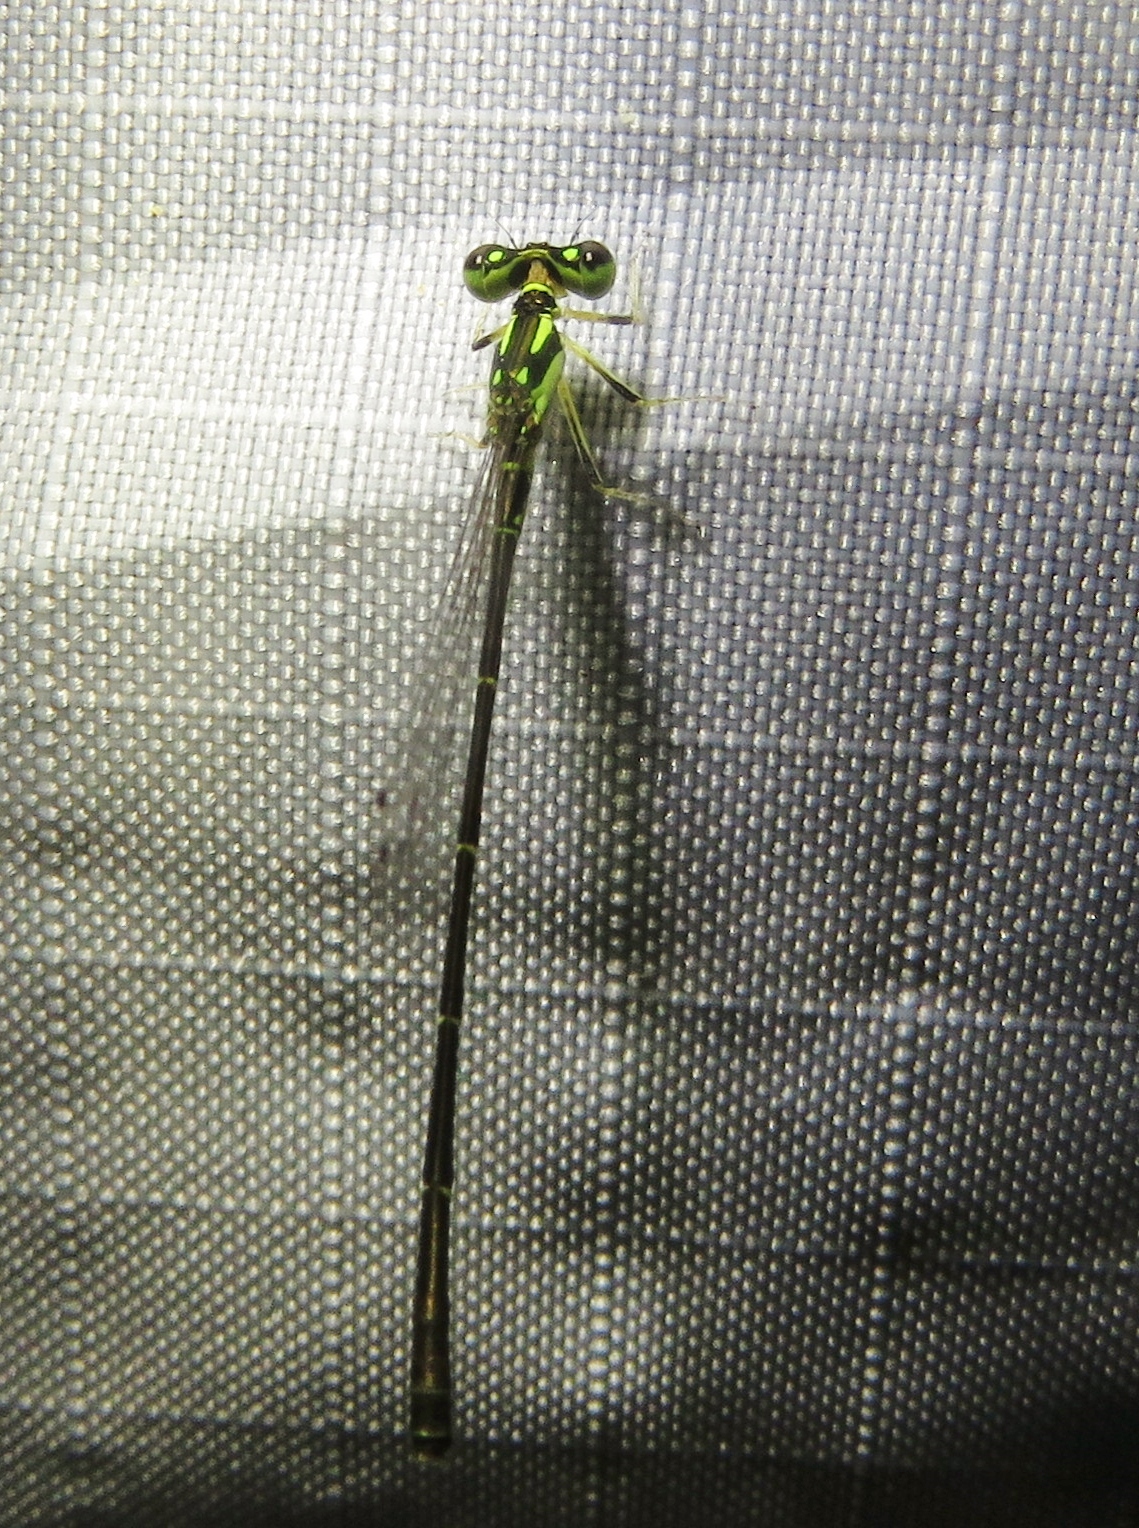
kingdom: Animalia
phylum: Arthropoda
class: Insecta
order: Odonata
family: Coenagrionidae
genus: Ischnura
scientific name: Ischnura posita
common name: Fragile forktail
